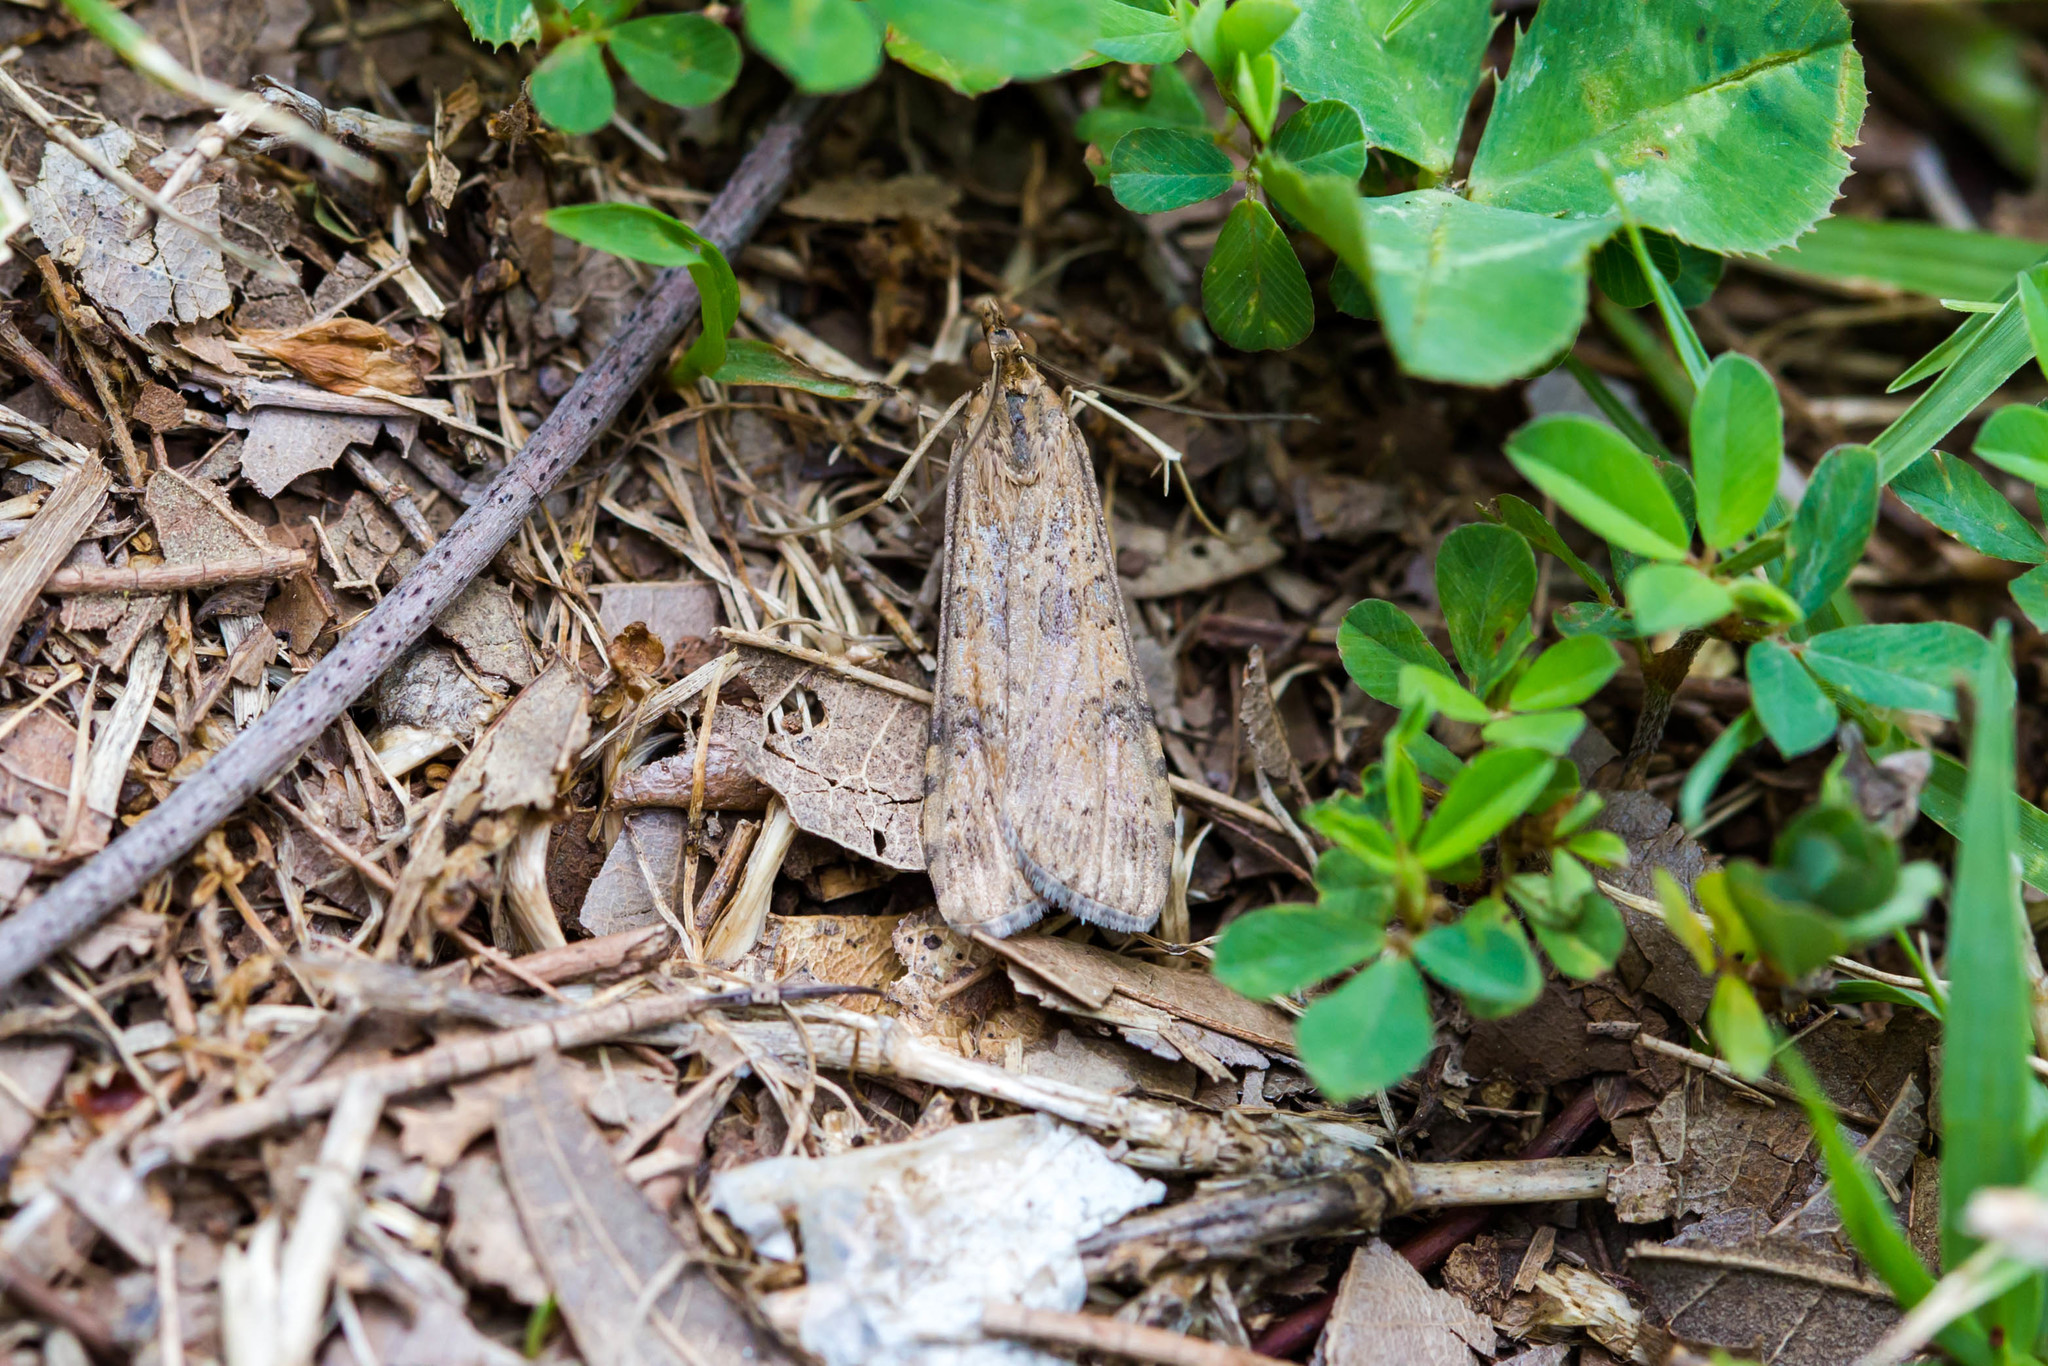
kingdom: Animalia
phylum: Arthropoda
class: Insecta
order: Lepidoptera
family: Crambidae
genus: Nomophila
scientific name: Nomophila nearctica
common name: American rush veneer
